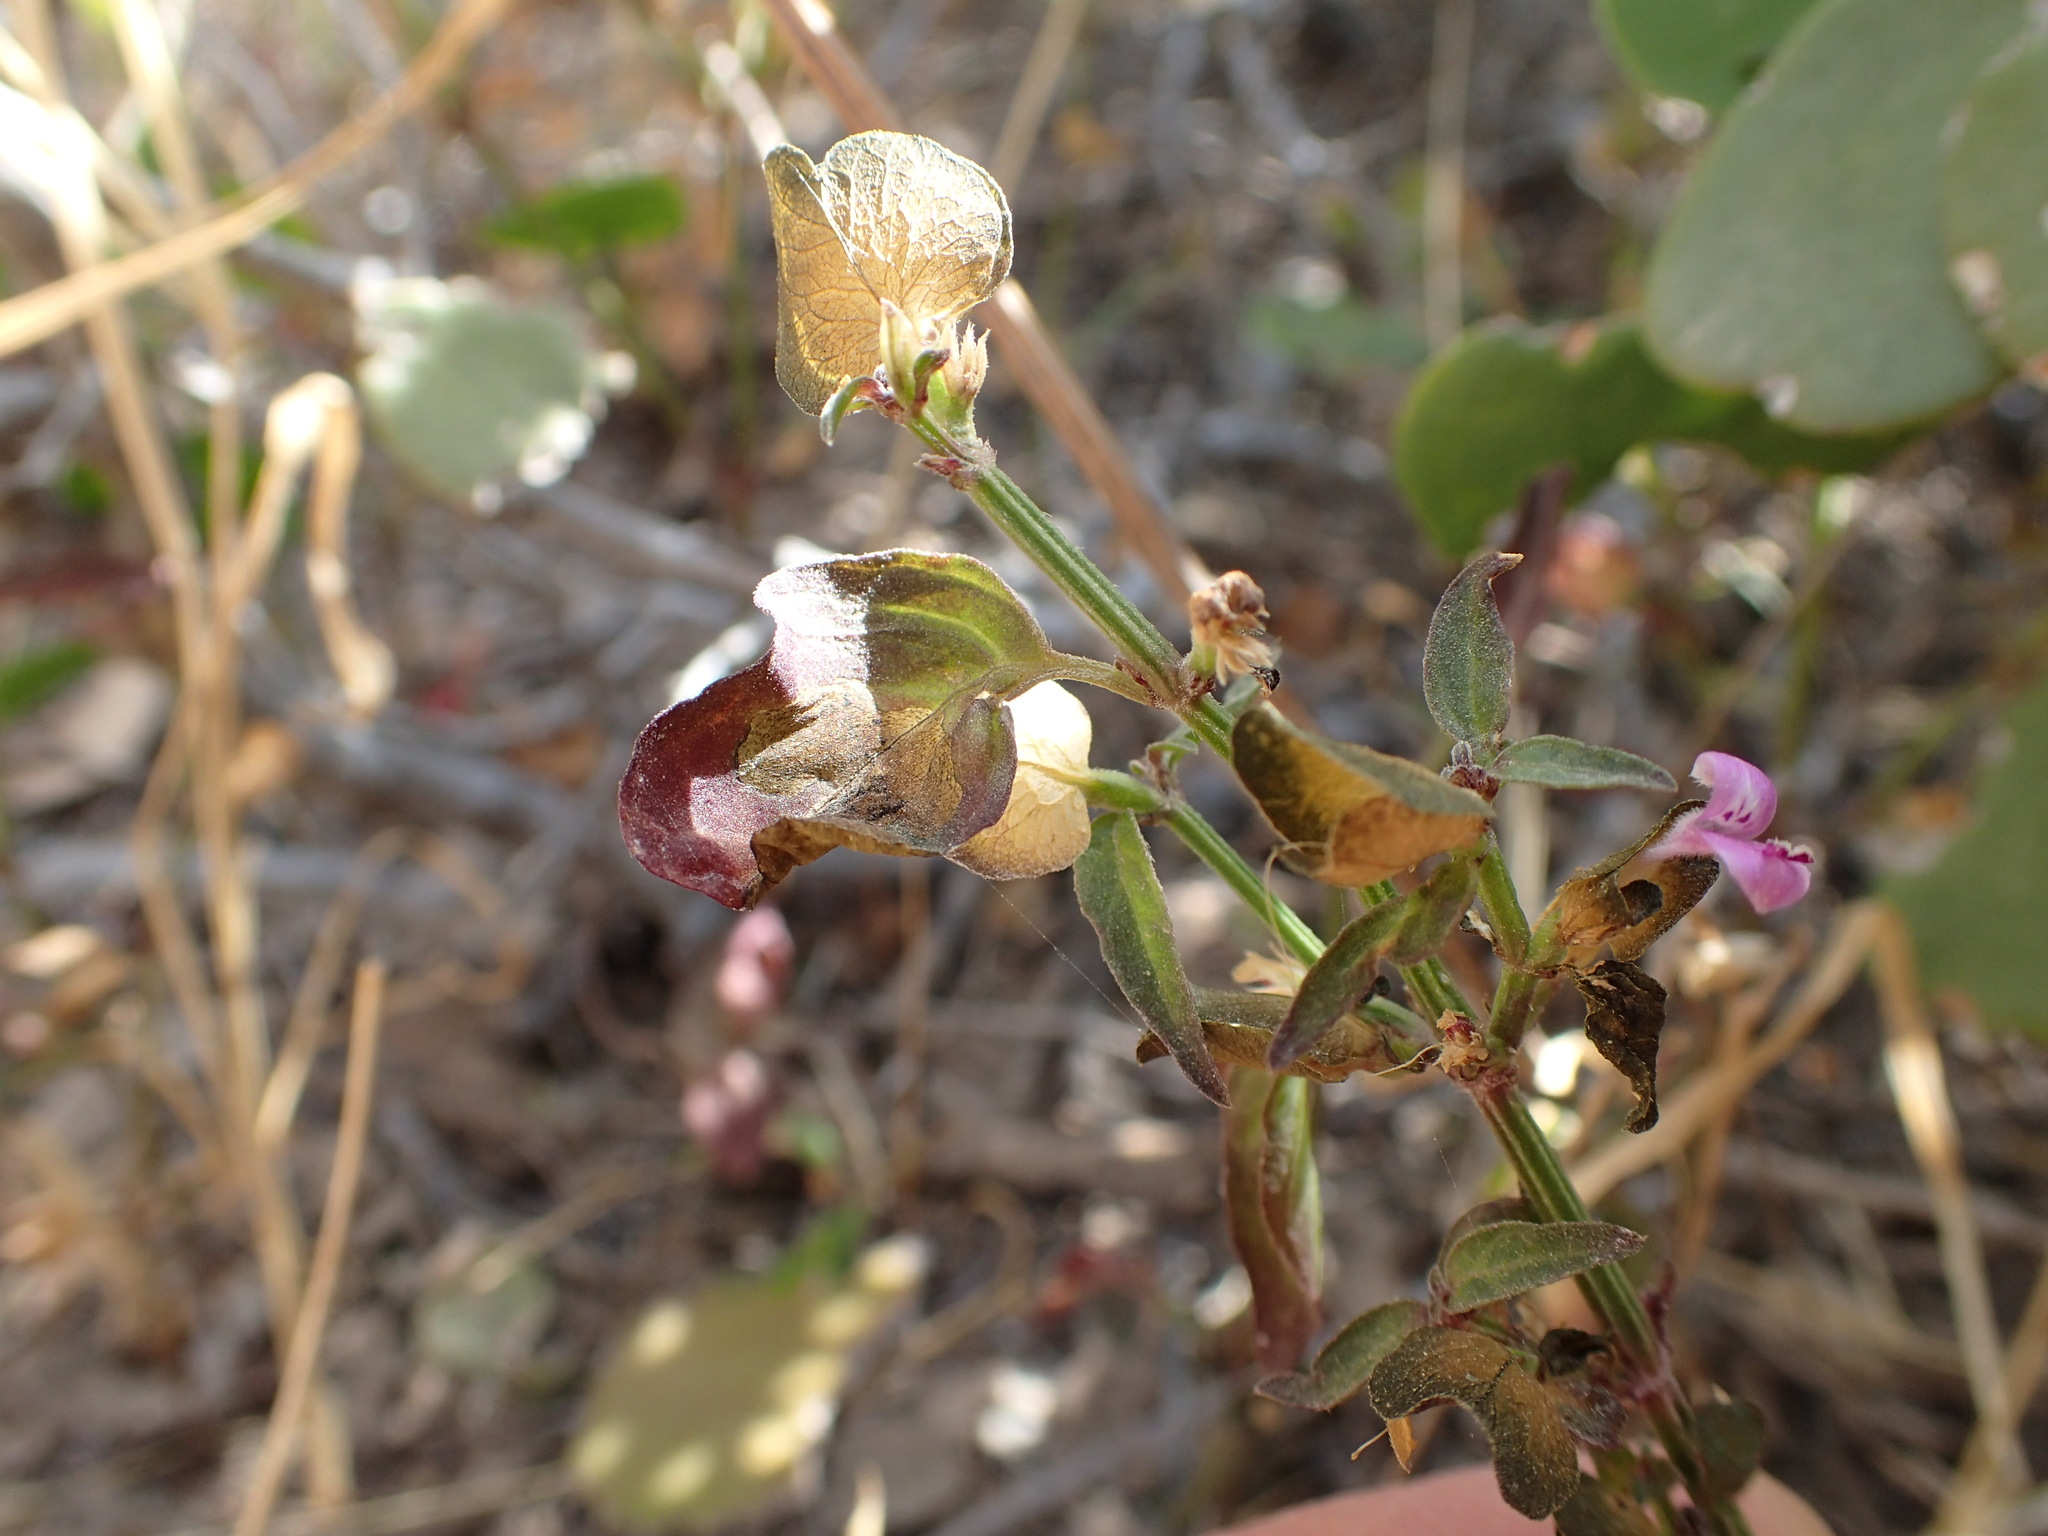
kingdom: Plantae
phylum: Tracheophyta
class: Magnoliopsida
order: Lamiales
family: Acanthaceae
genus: Dicliptera
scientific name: Dicliptera resupinata
